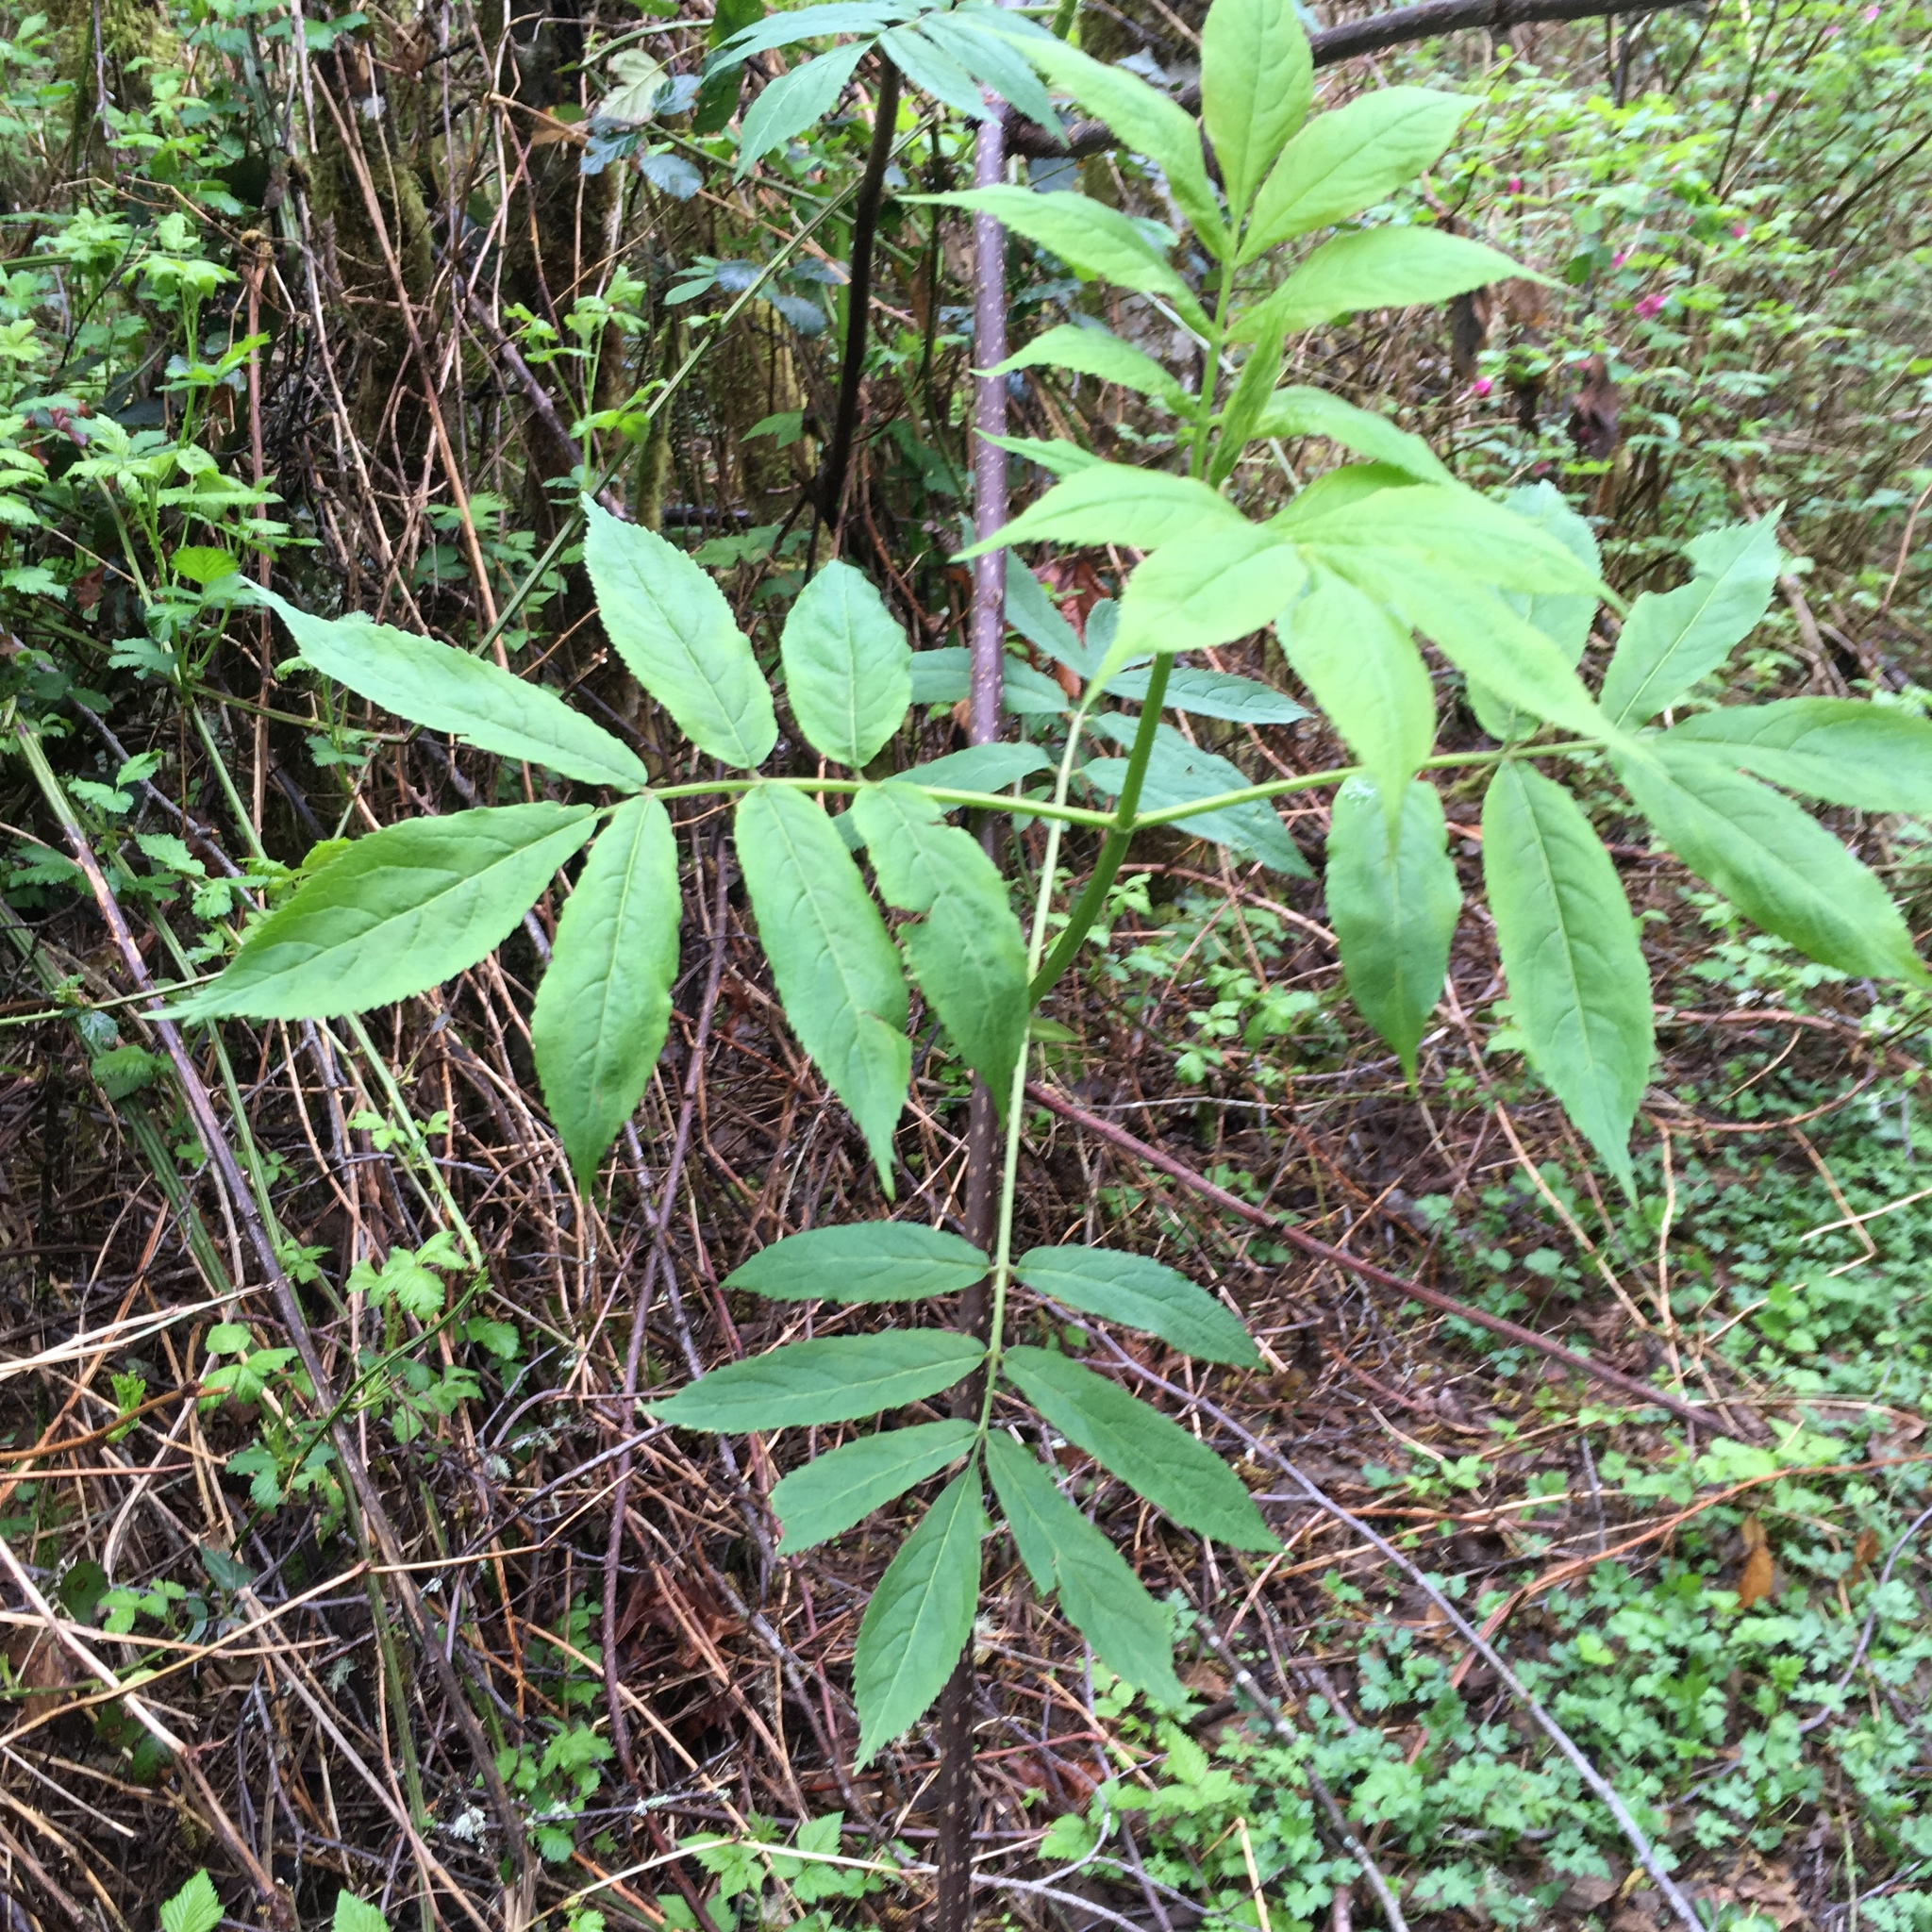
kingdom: Plantae
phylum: Tracheophyta
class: Magnoliopsida
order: Dipsacales
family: Viburnaceae
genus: Sambucus
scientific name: Sambucus racemosa
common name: Red-berried elder
